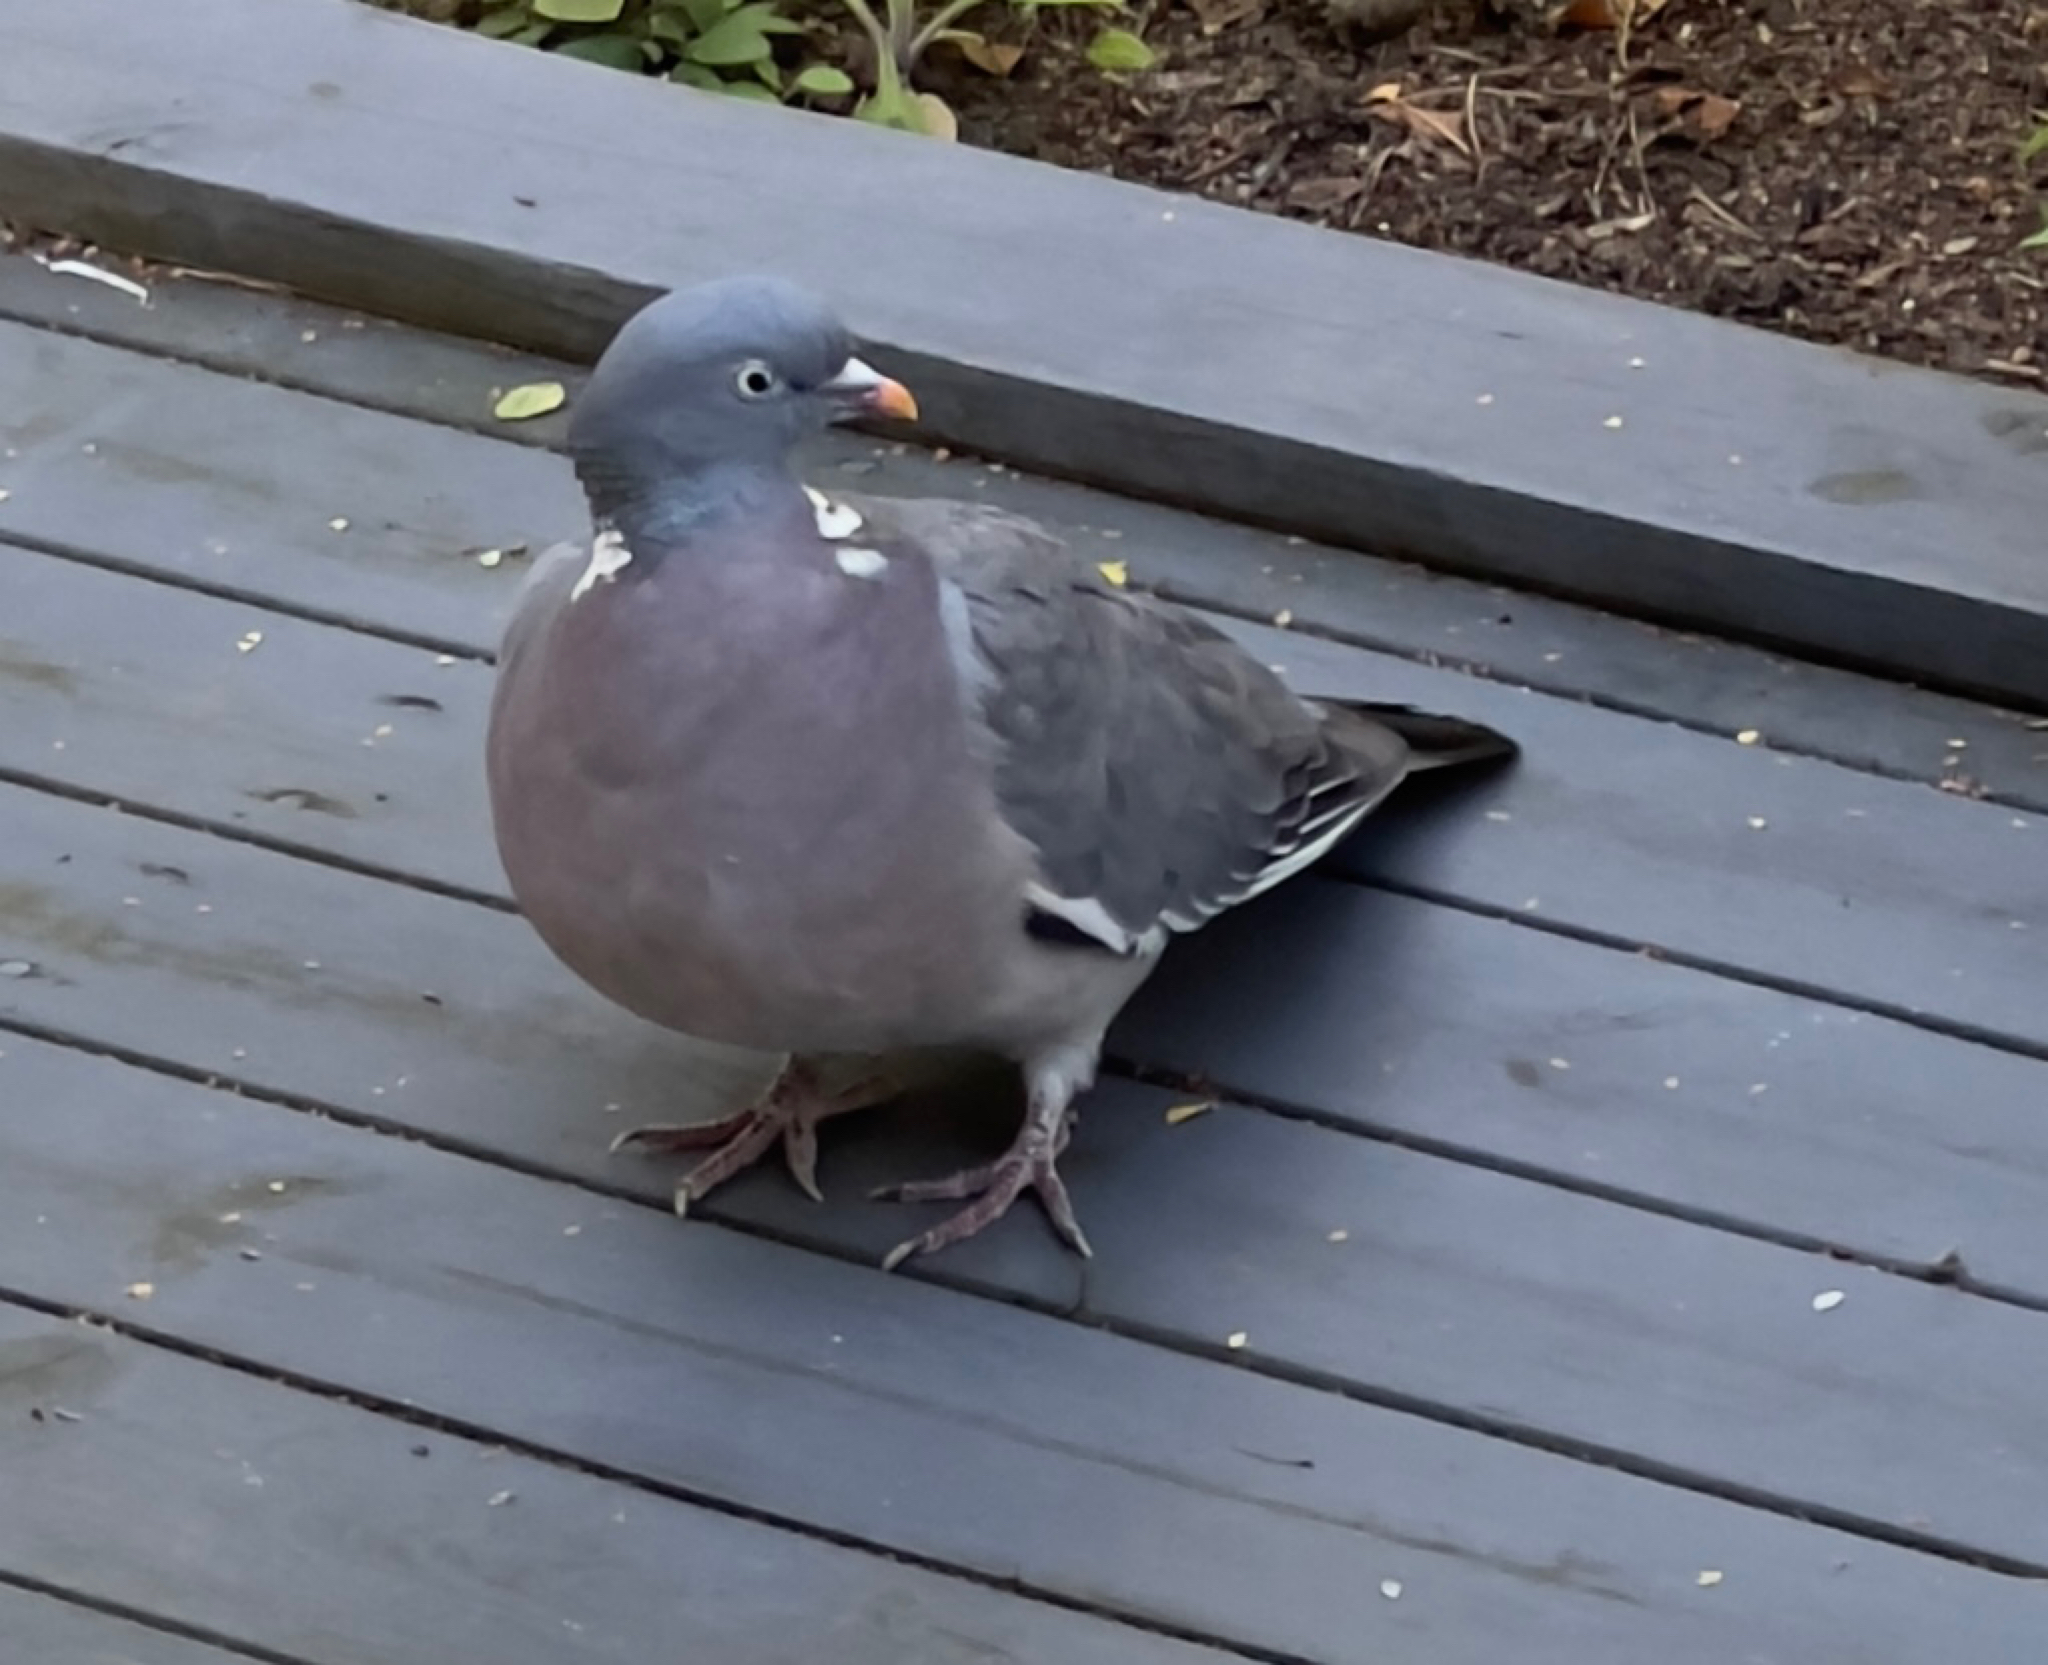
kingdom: Animalia
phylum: Chordata
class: Aves
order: Columbiformes
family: Columbidae
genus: Columba
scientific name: Columba palumbus
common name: Common wood pigeon
